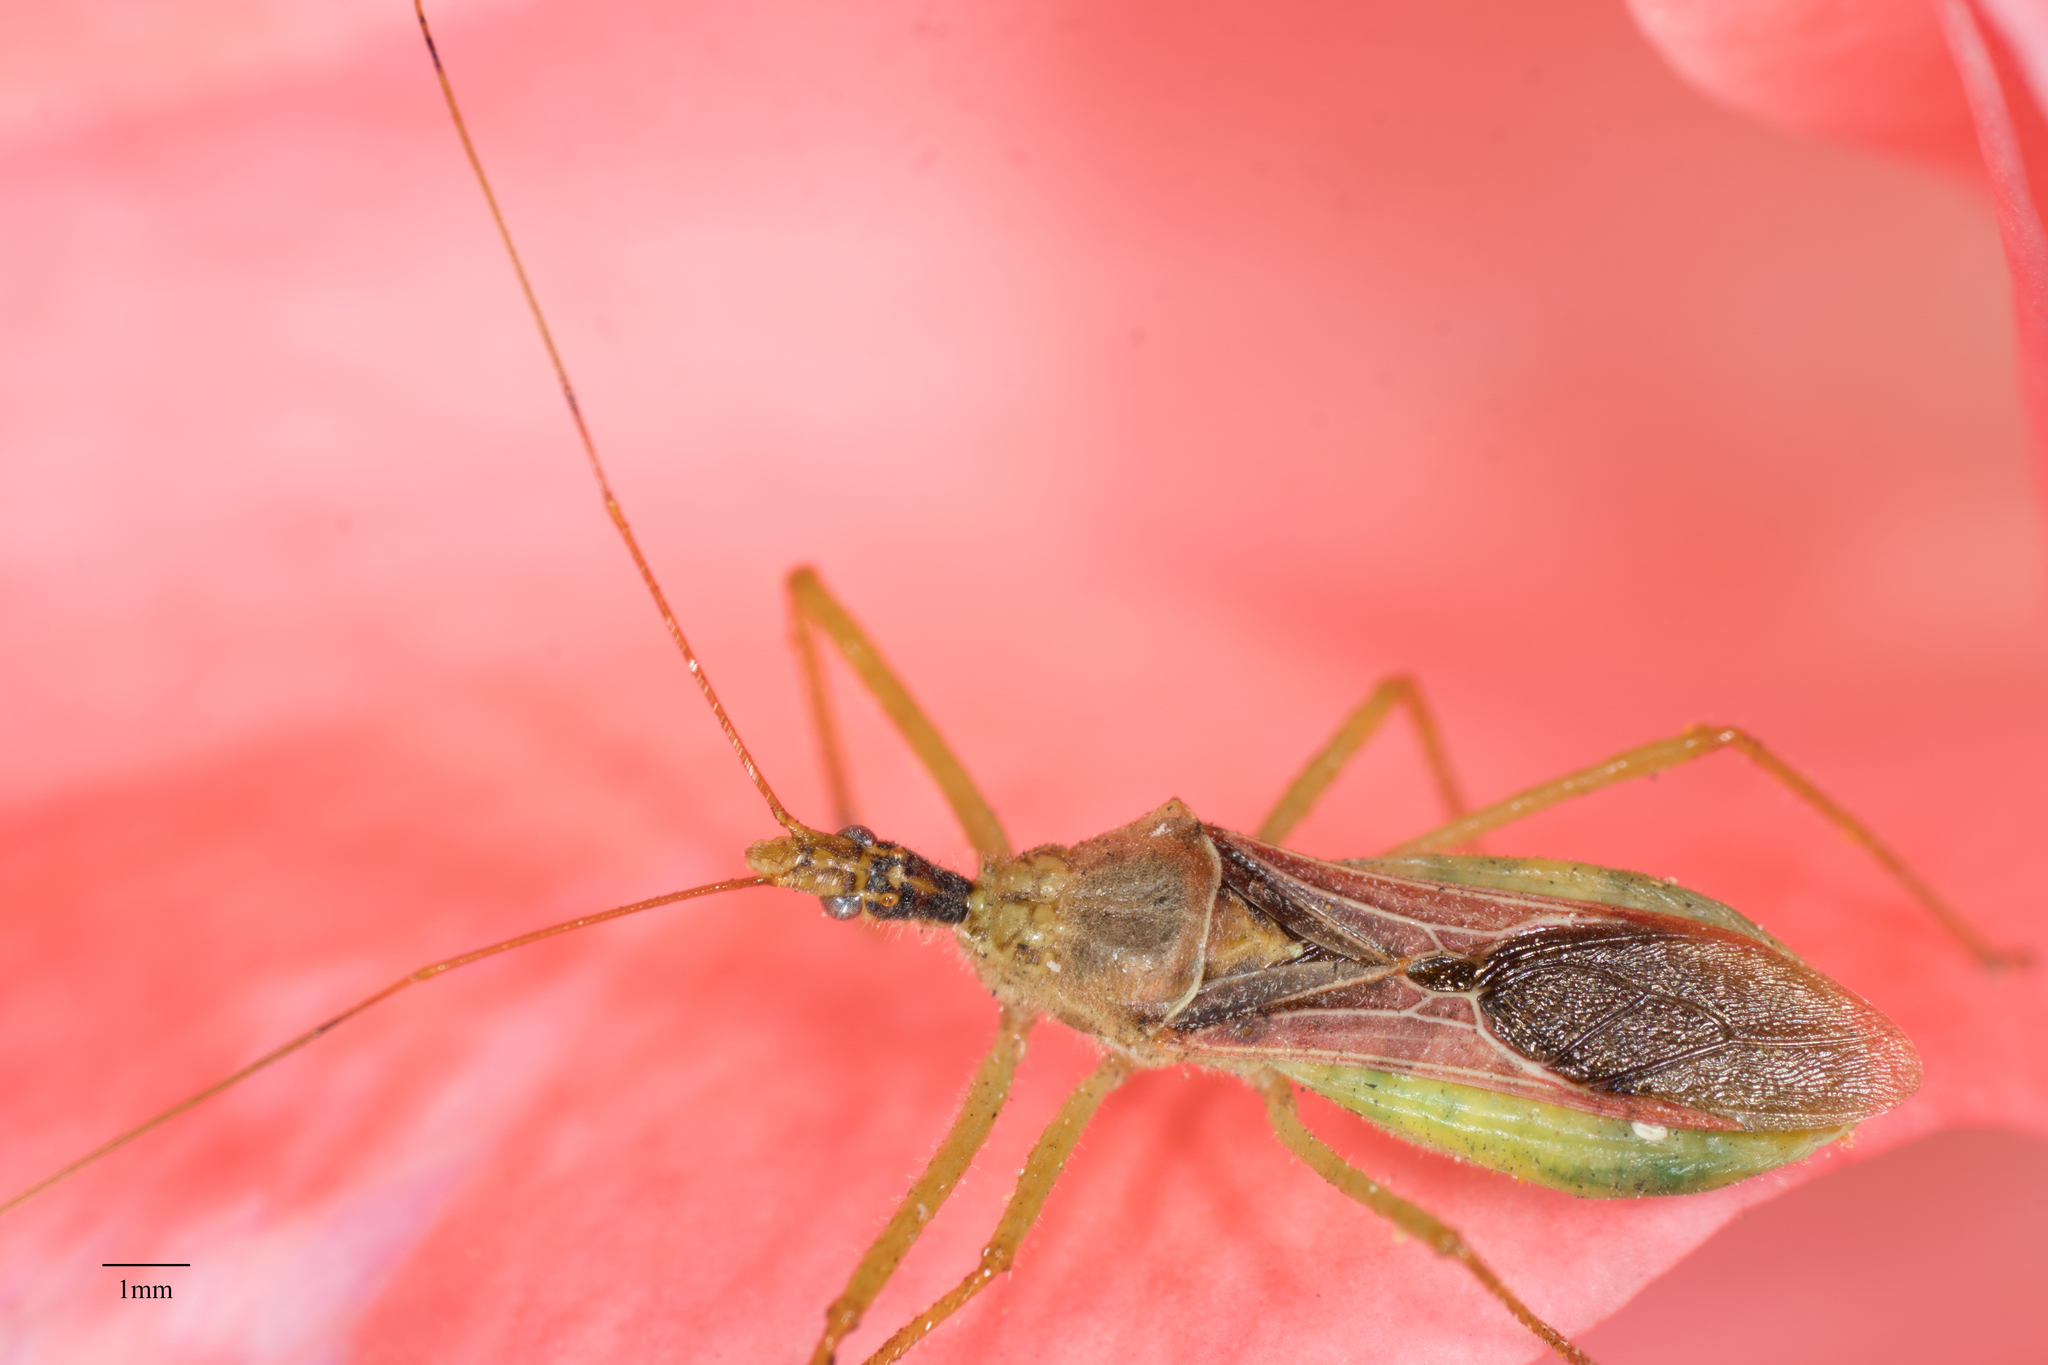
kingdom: Animalia
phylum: Arthropoda
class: Insecta
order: Hemiptera
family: Reduviidae
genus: Zelus
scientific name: Zelus renardii
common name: Assassin bug
